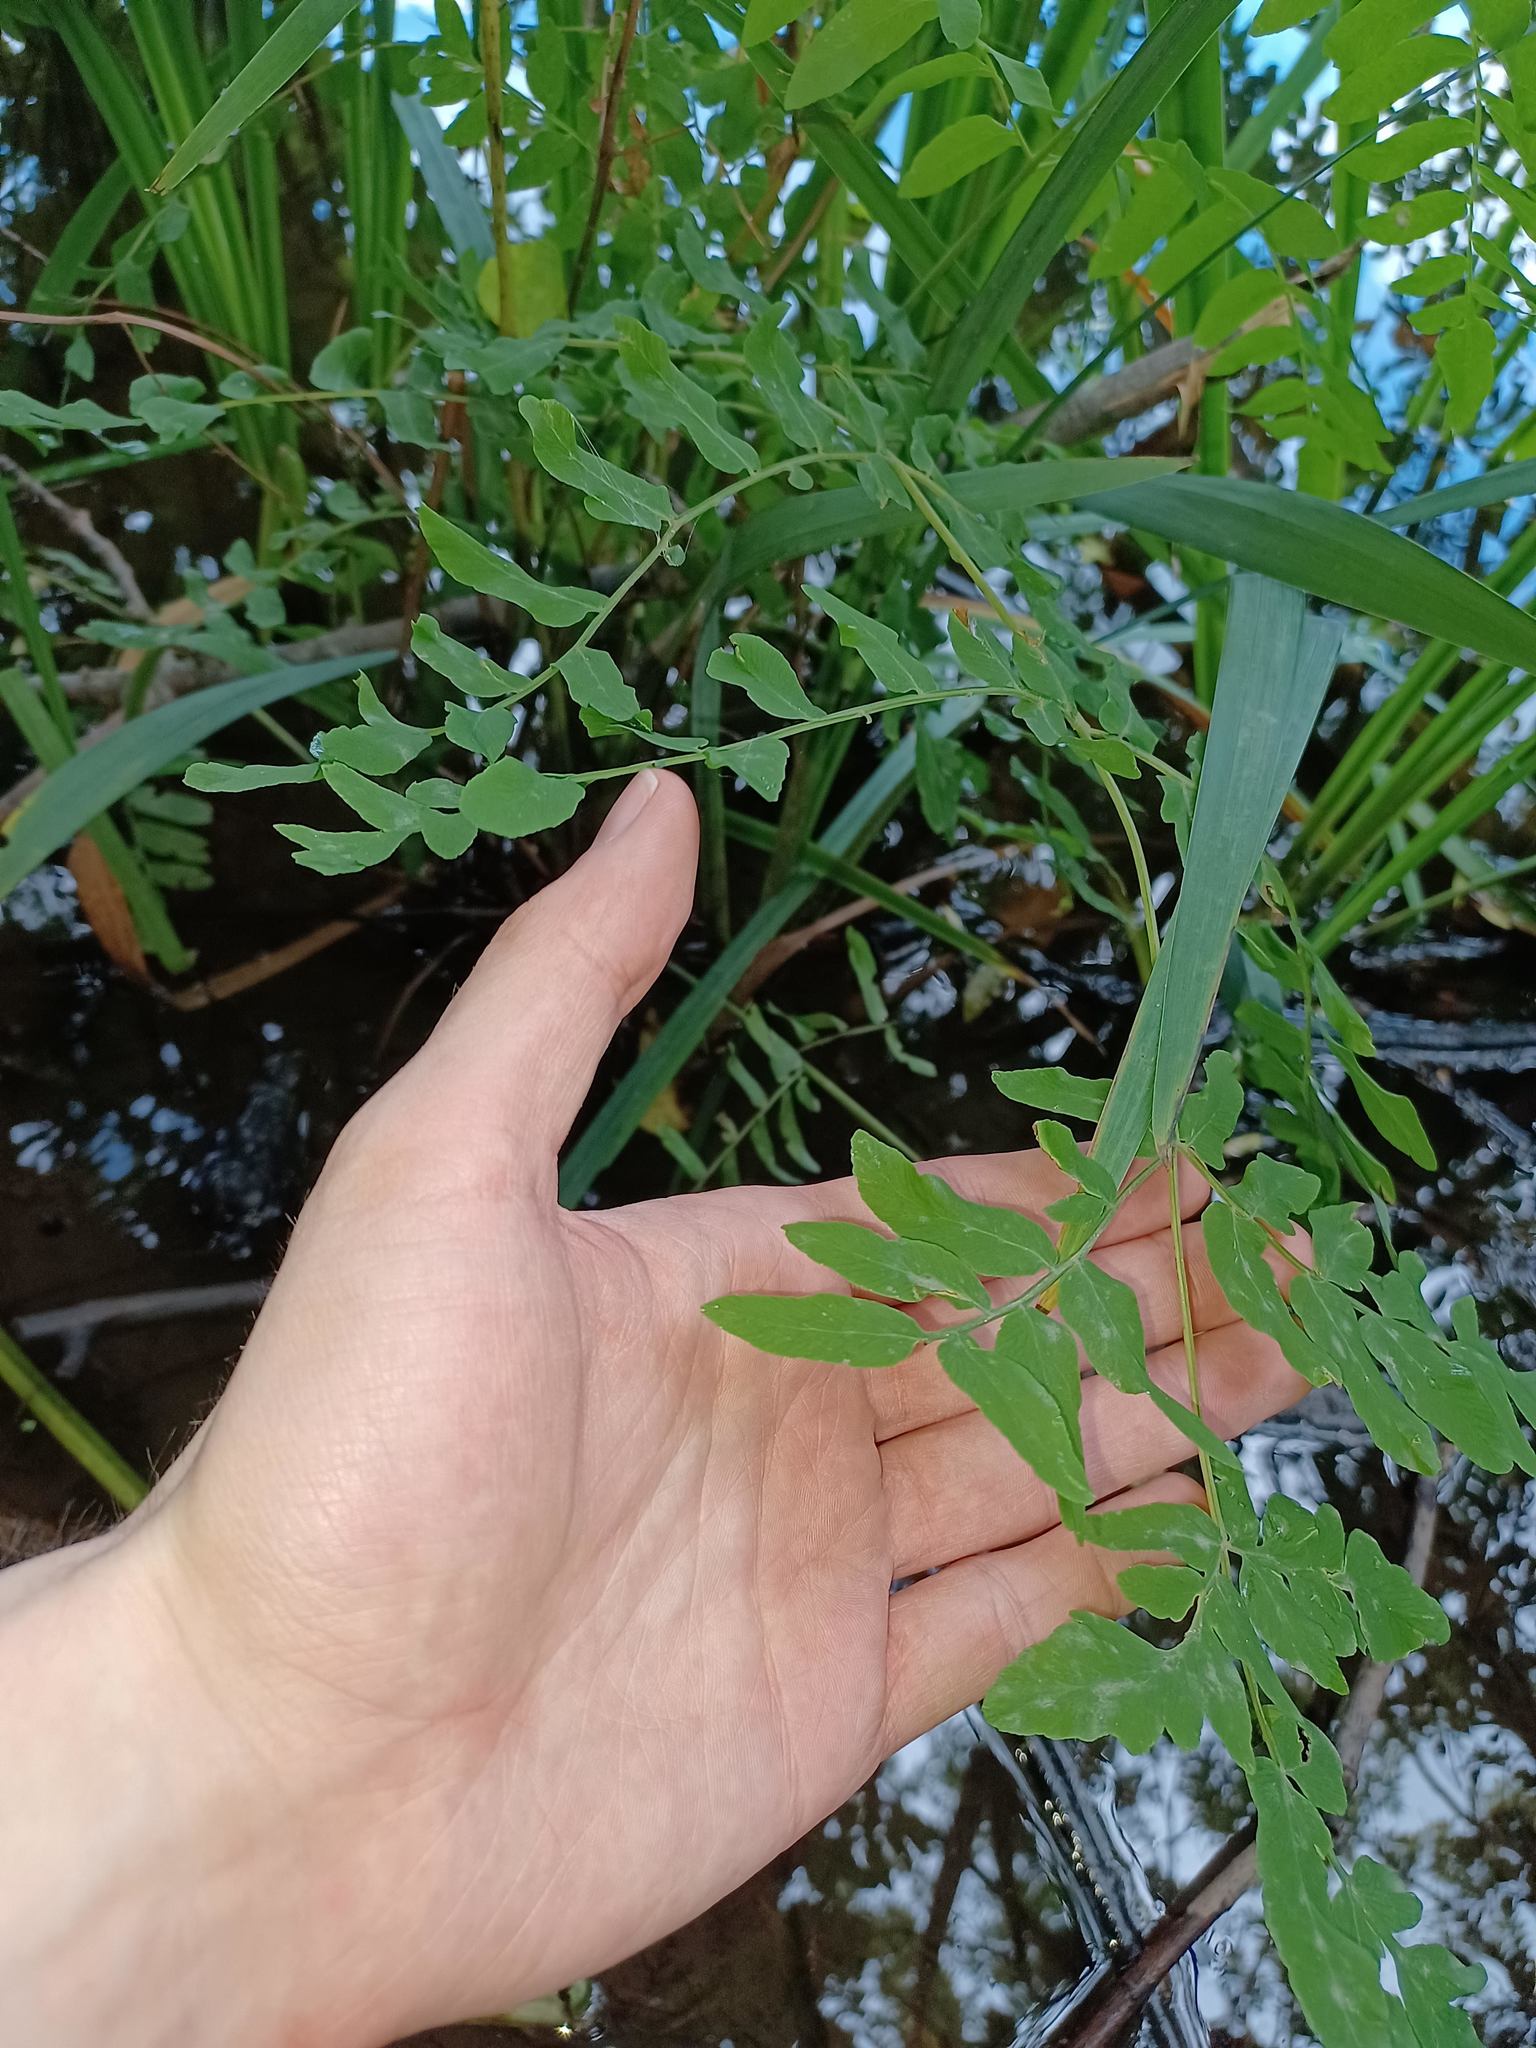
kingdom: Plantae
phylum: Tracheophyta
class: Polypodiopsida
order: Osmundales
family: Osmundaceae
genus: Osmunda
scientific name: Osmunda spectabilis
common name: American royal fern
